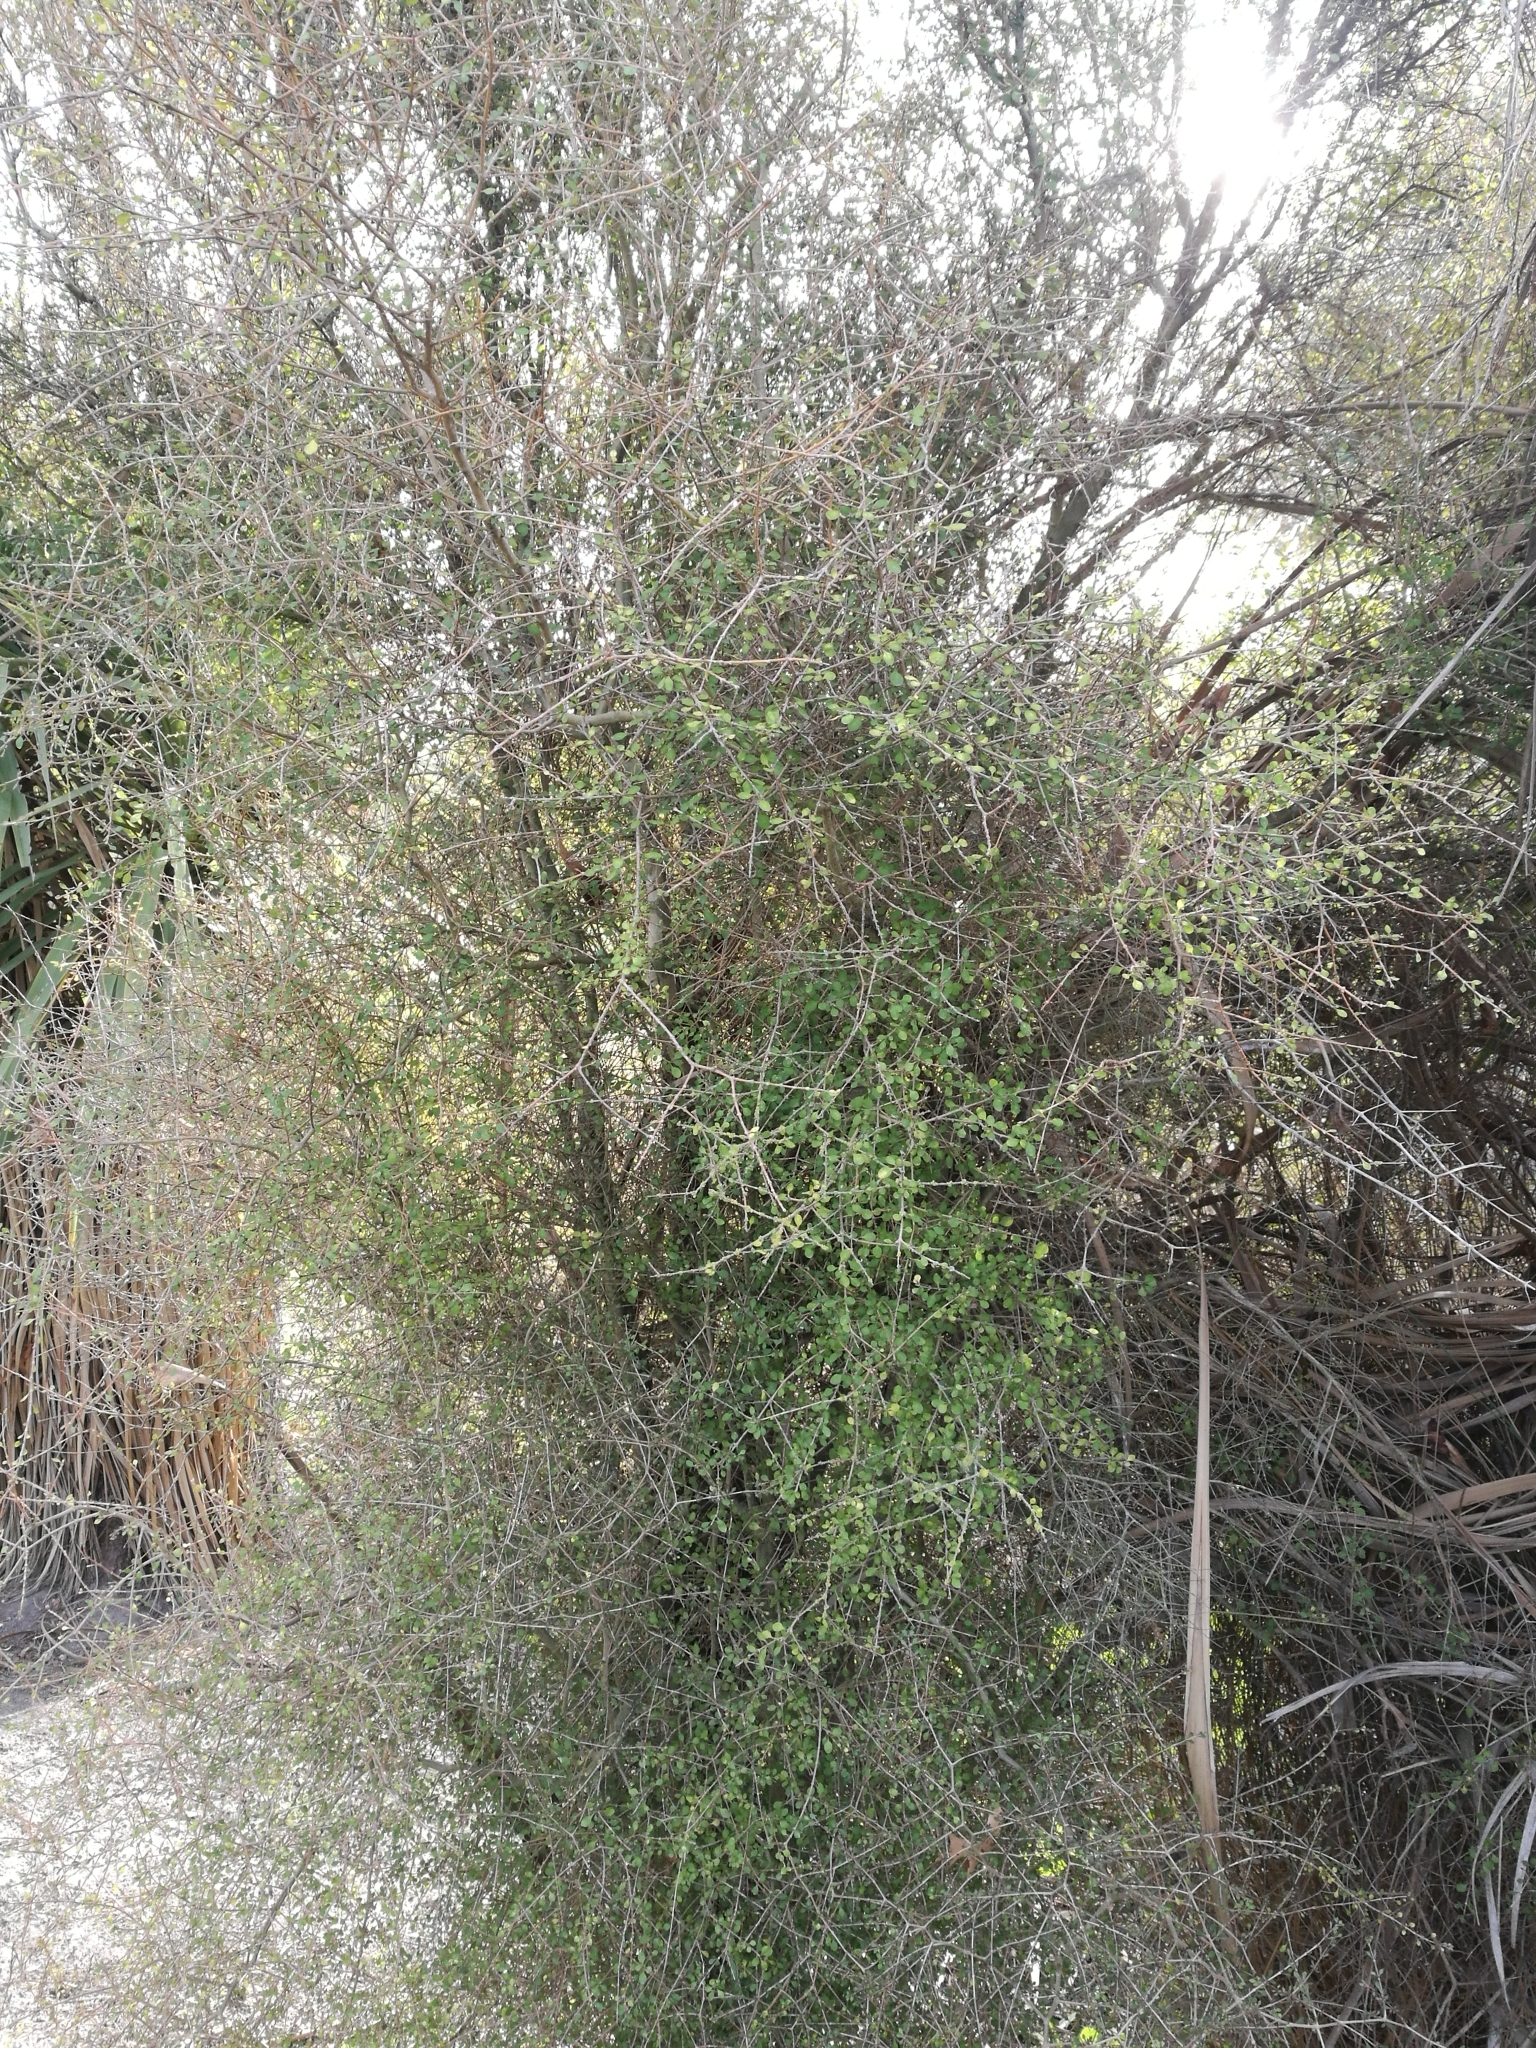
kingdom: Plantae
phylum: Tracheophyta
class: Magnoliopsida
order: Gentianales
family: Rubiaceae
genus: Coprosma
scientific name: Coprosma virescens
